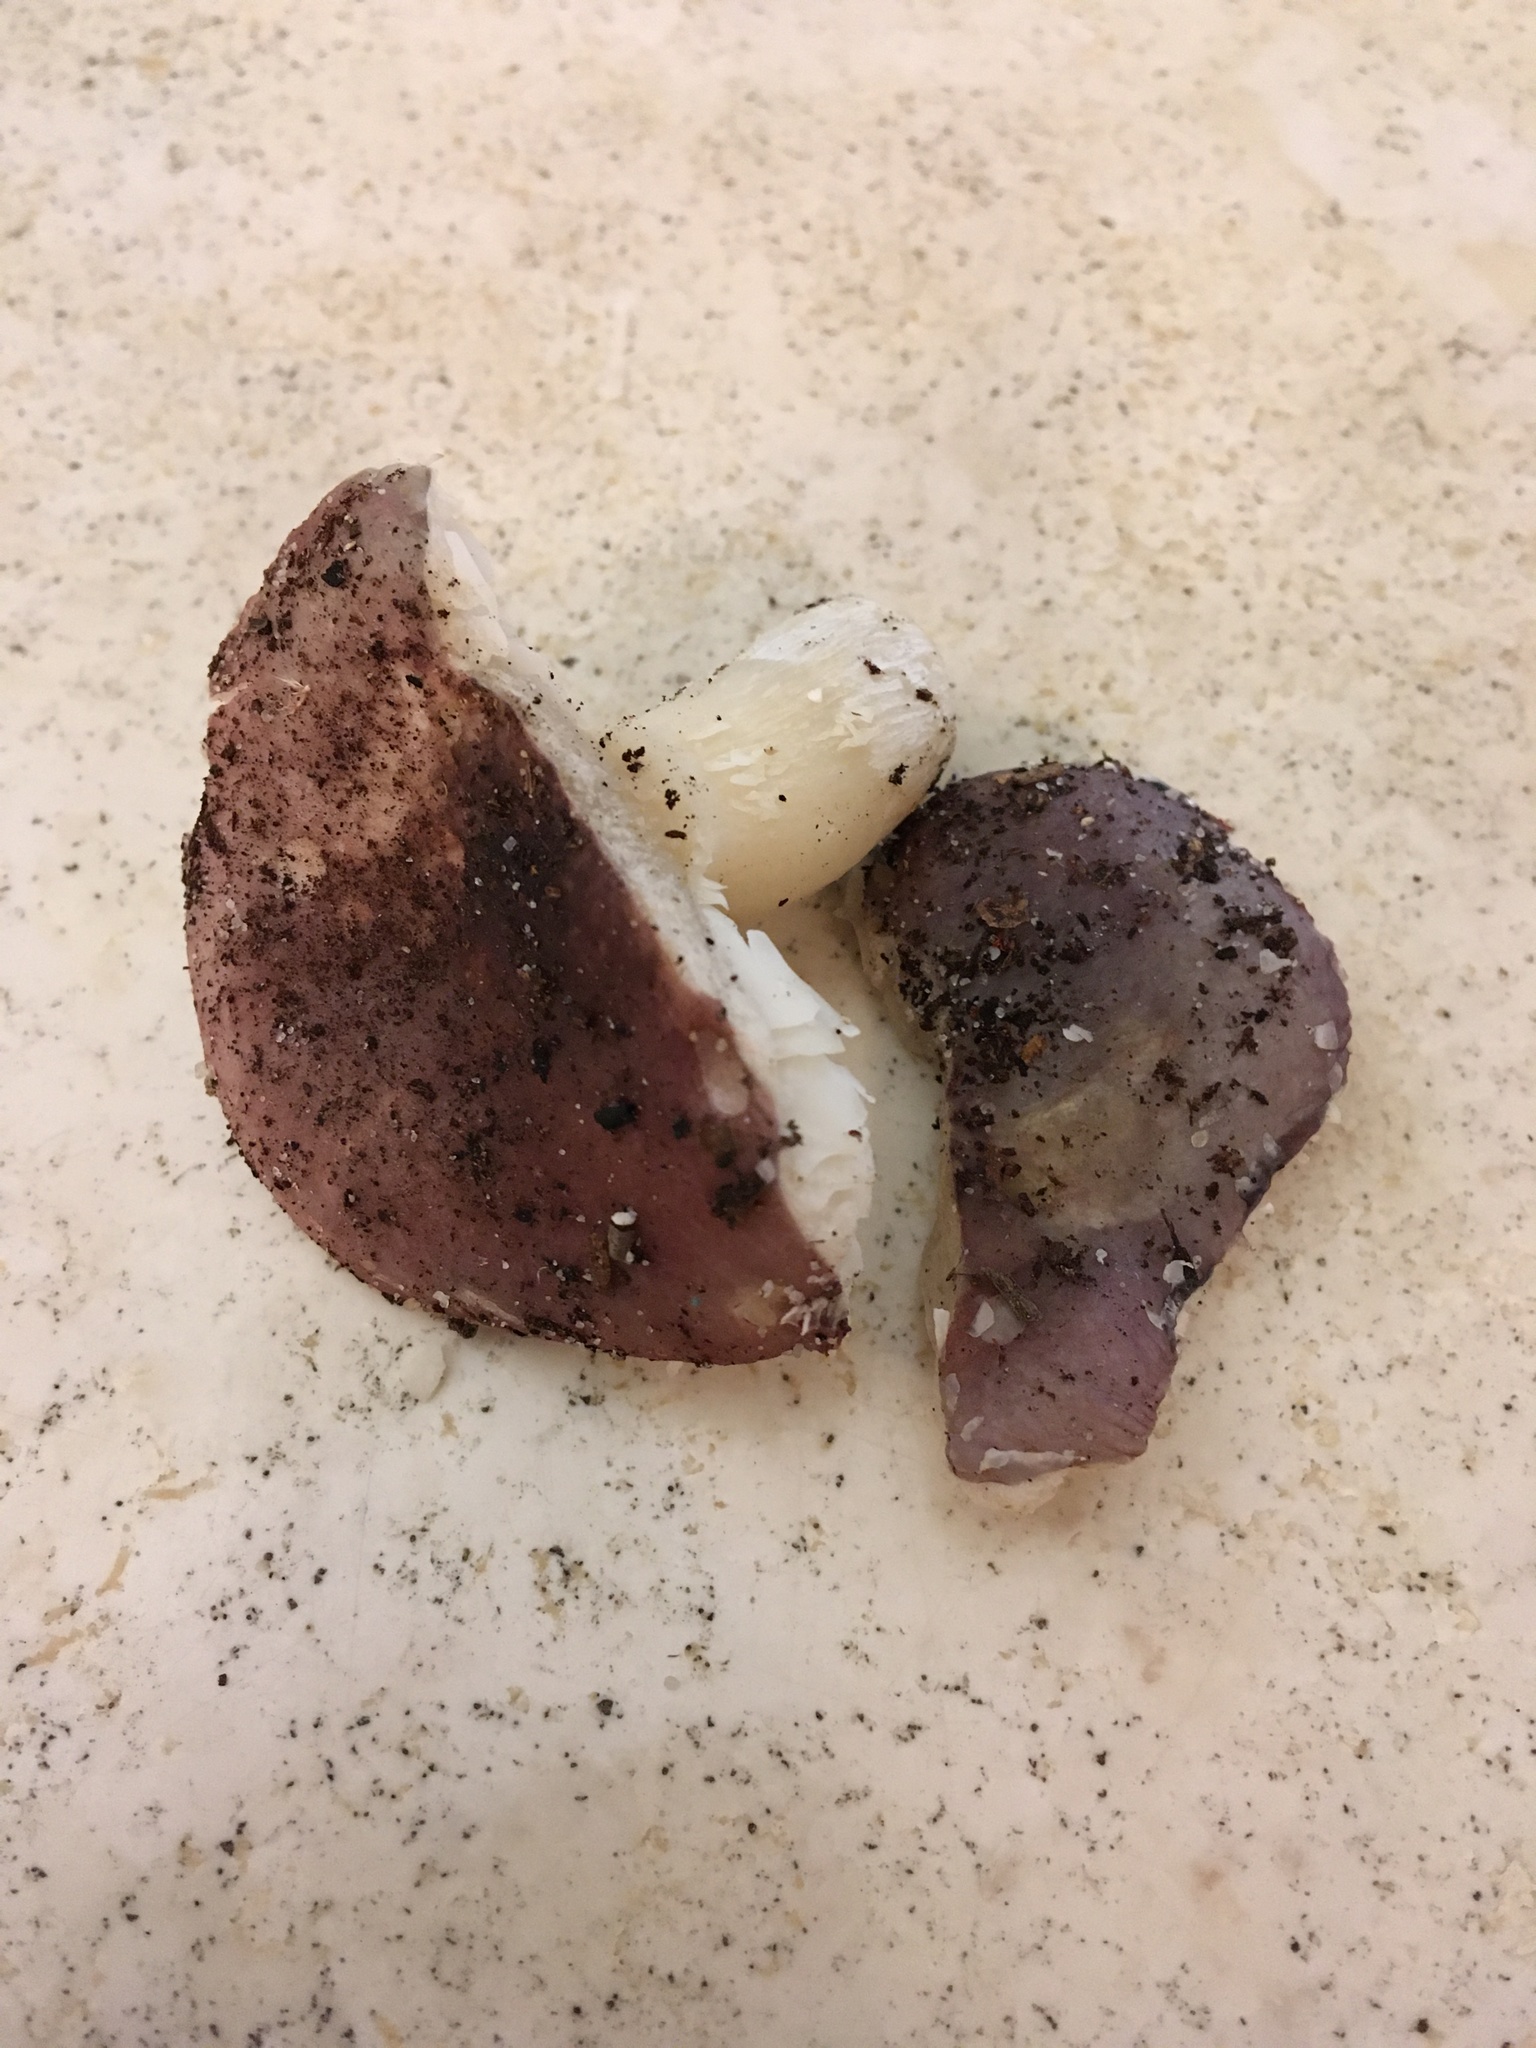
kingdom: Fungi
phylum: Basidiomycota
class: Agaricomycetes
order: Russulales
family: Russulaceae
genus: Russula
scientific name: Russula sericeonitens
